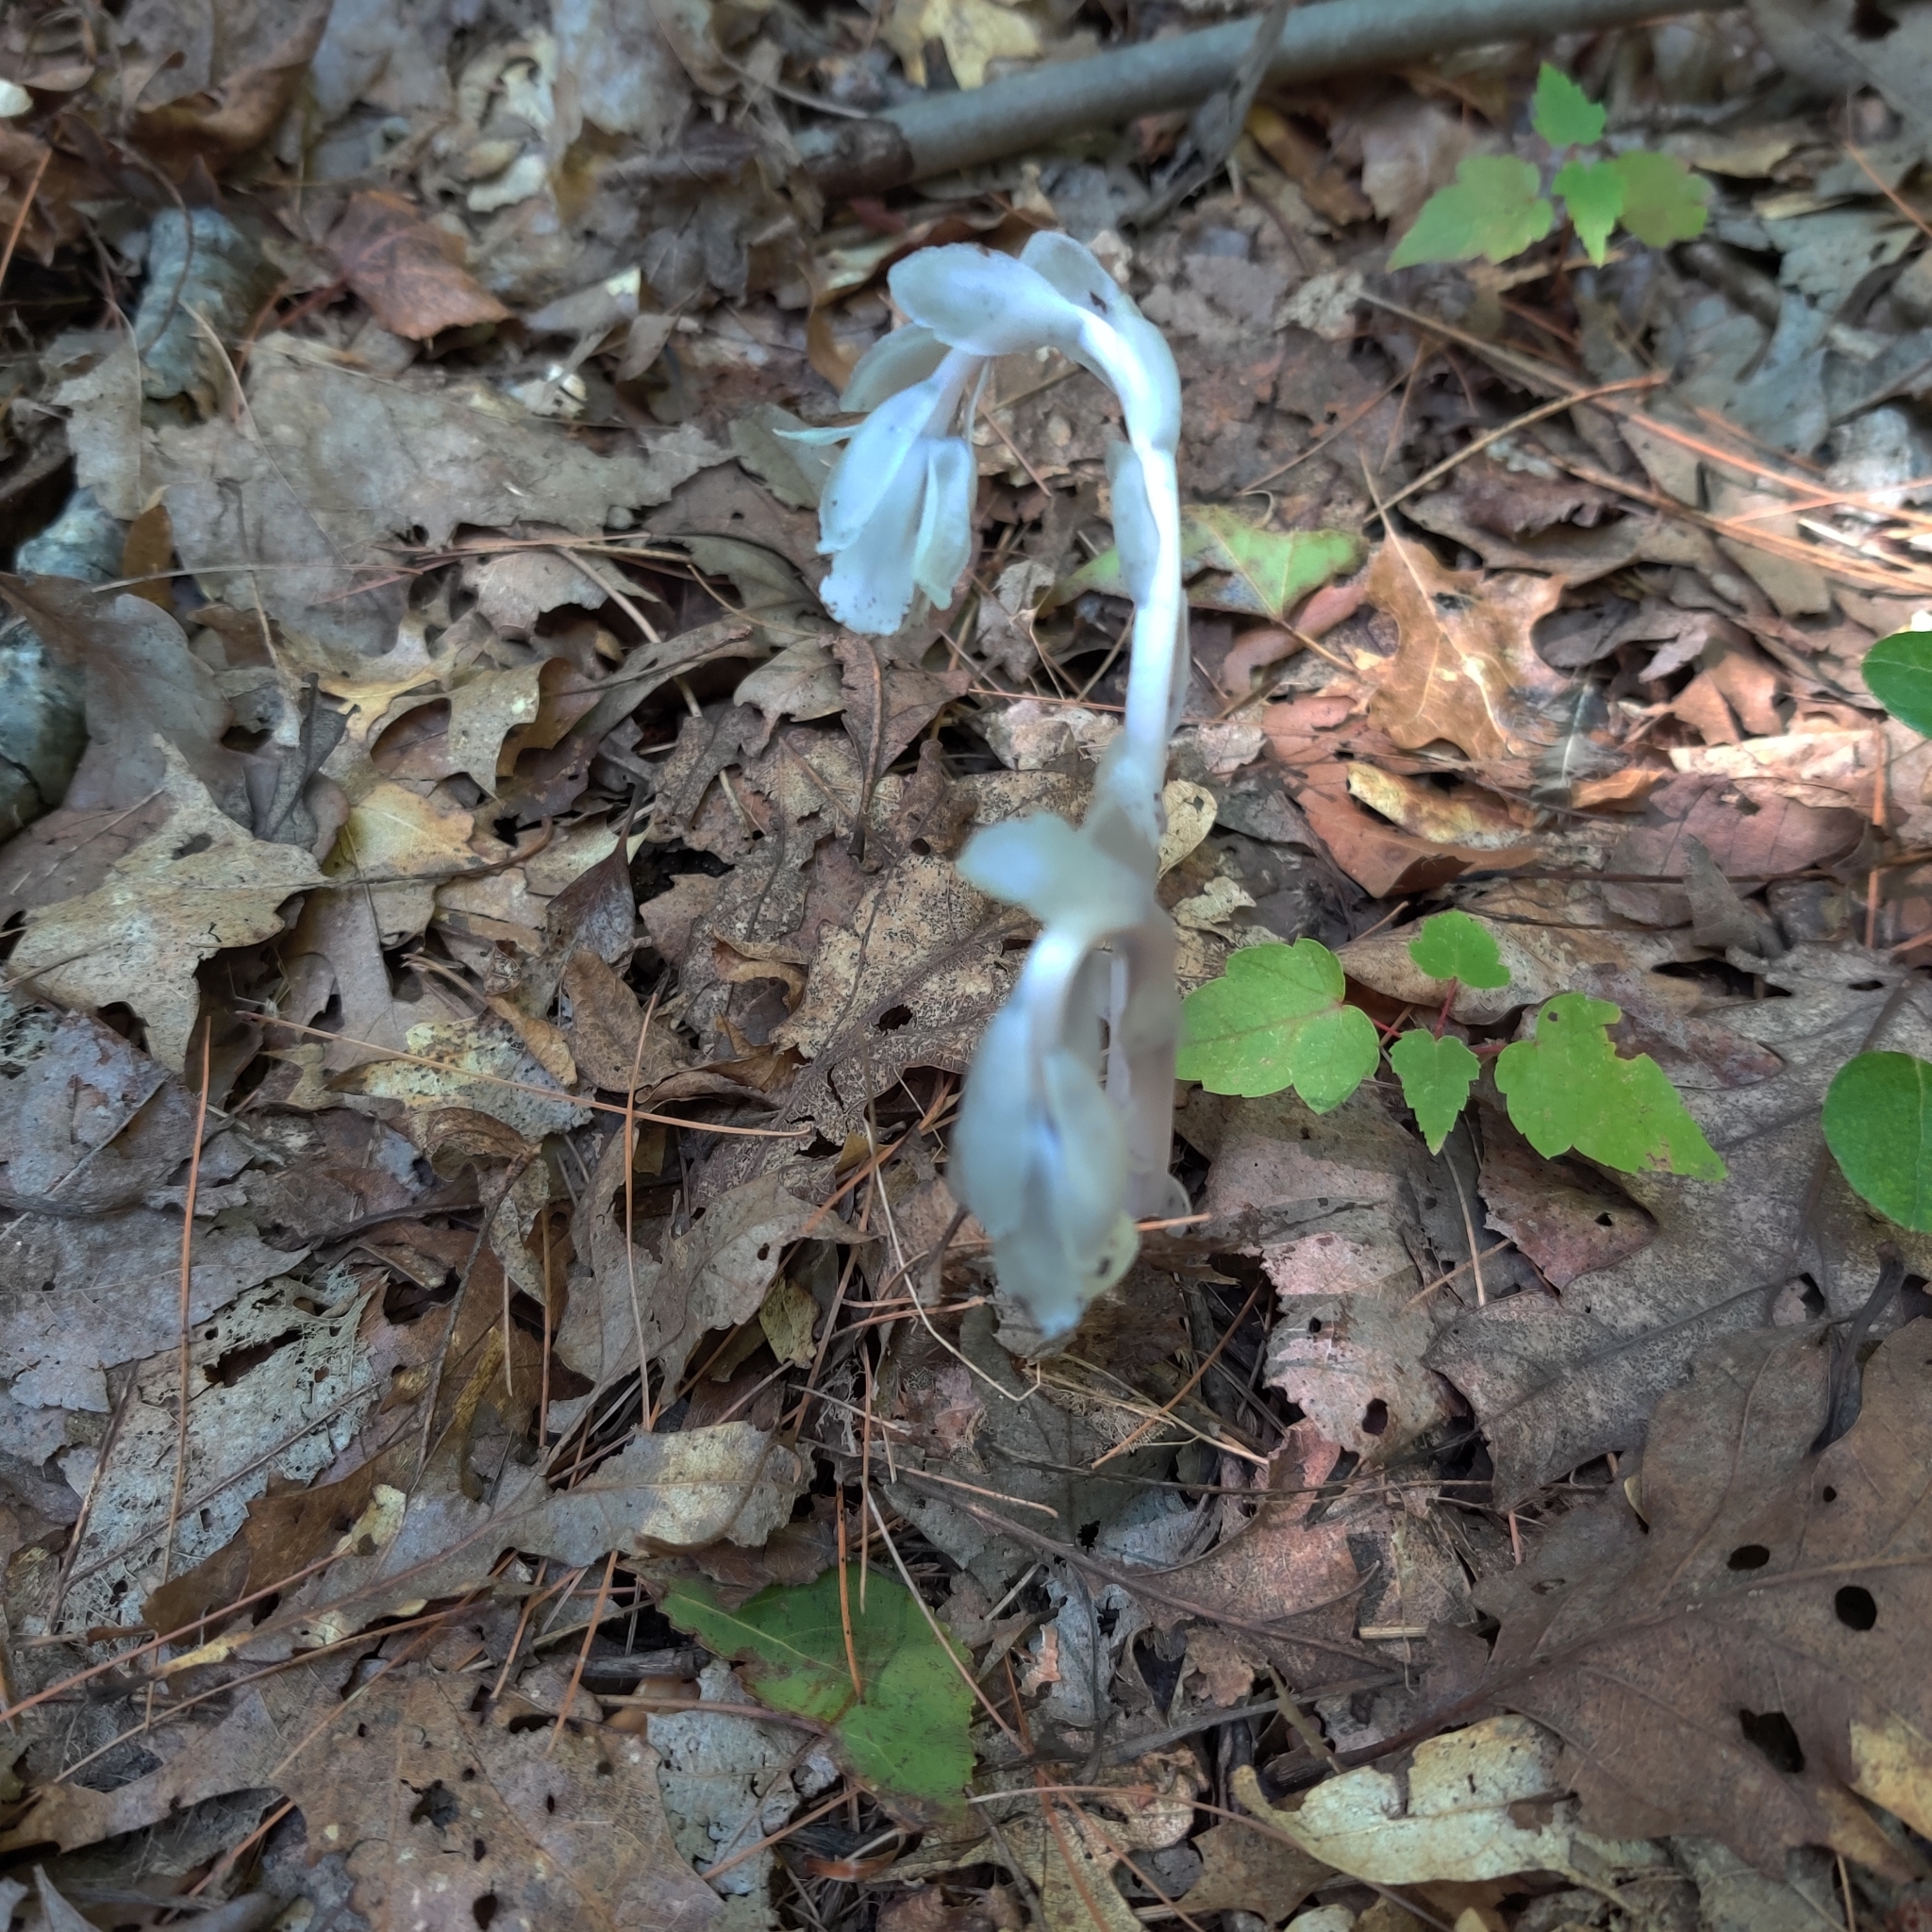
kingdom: Plantae
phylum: Tracheophyta
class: Magnoliopsida
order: Ericales
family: Ericaceae
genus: Monotropa
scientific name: Monotropa uniflora
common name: Convulsion root
